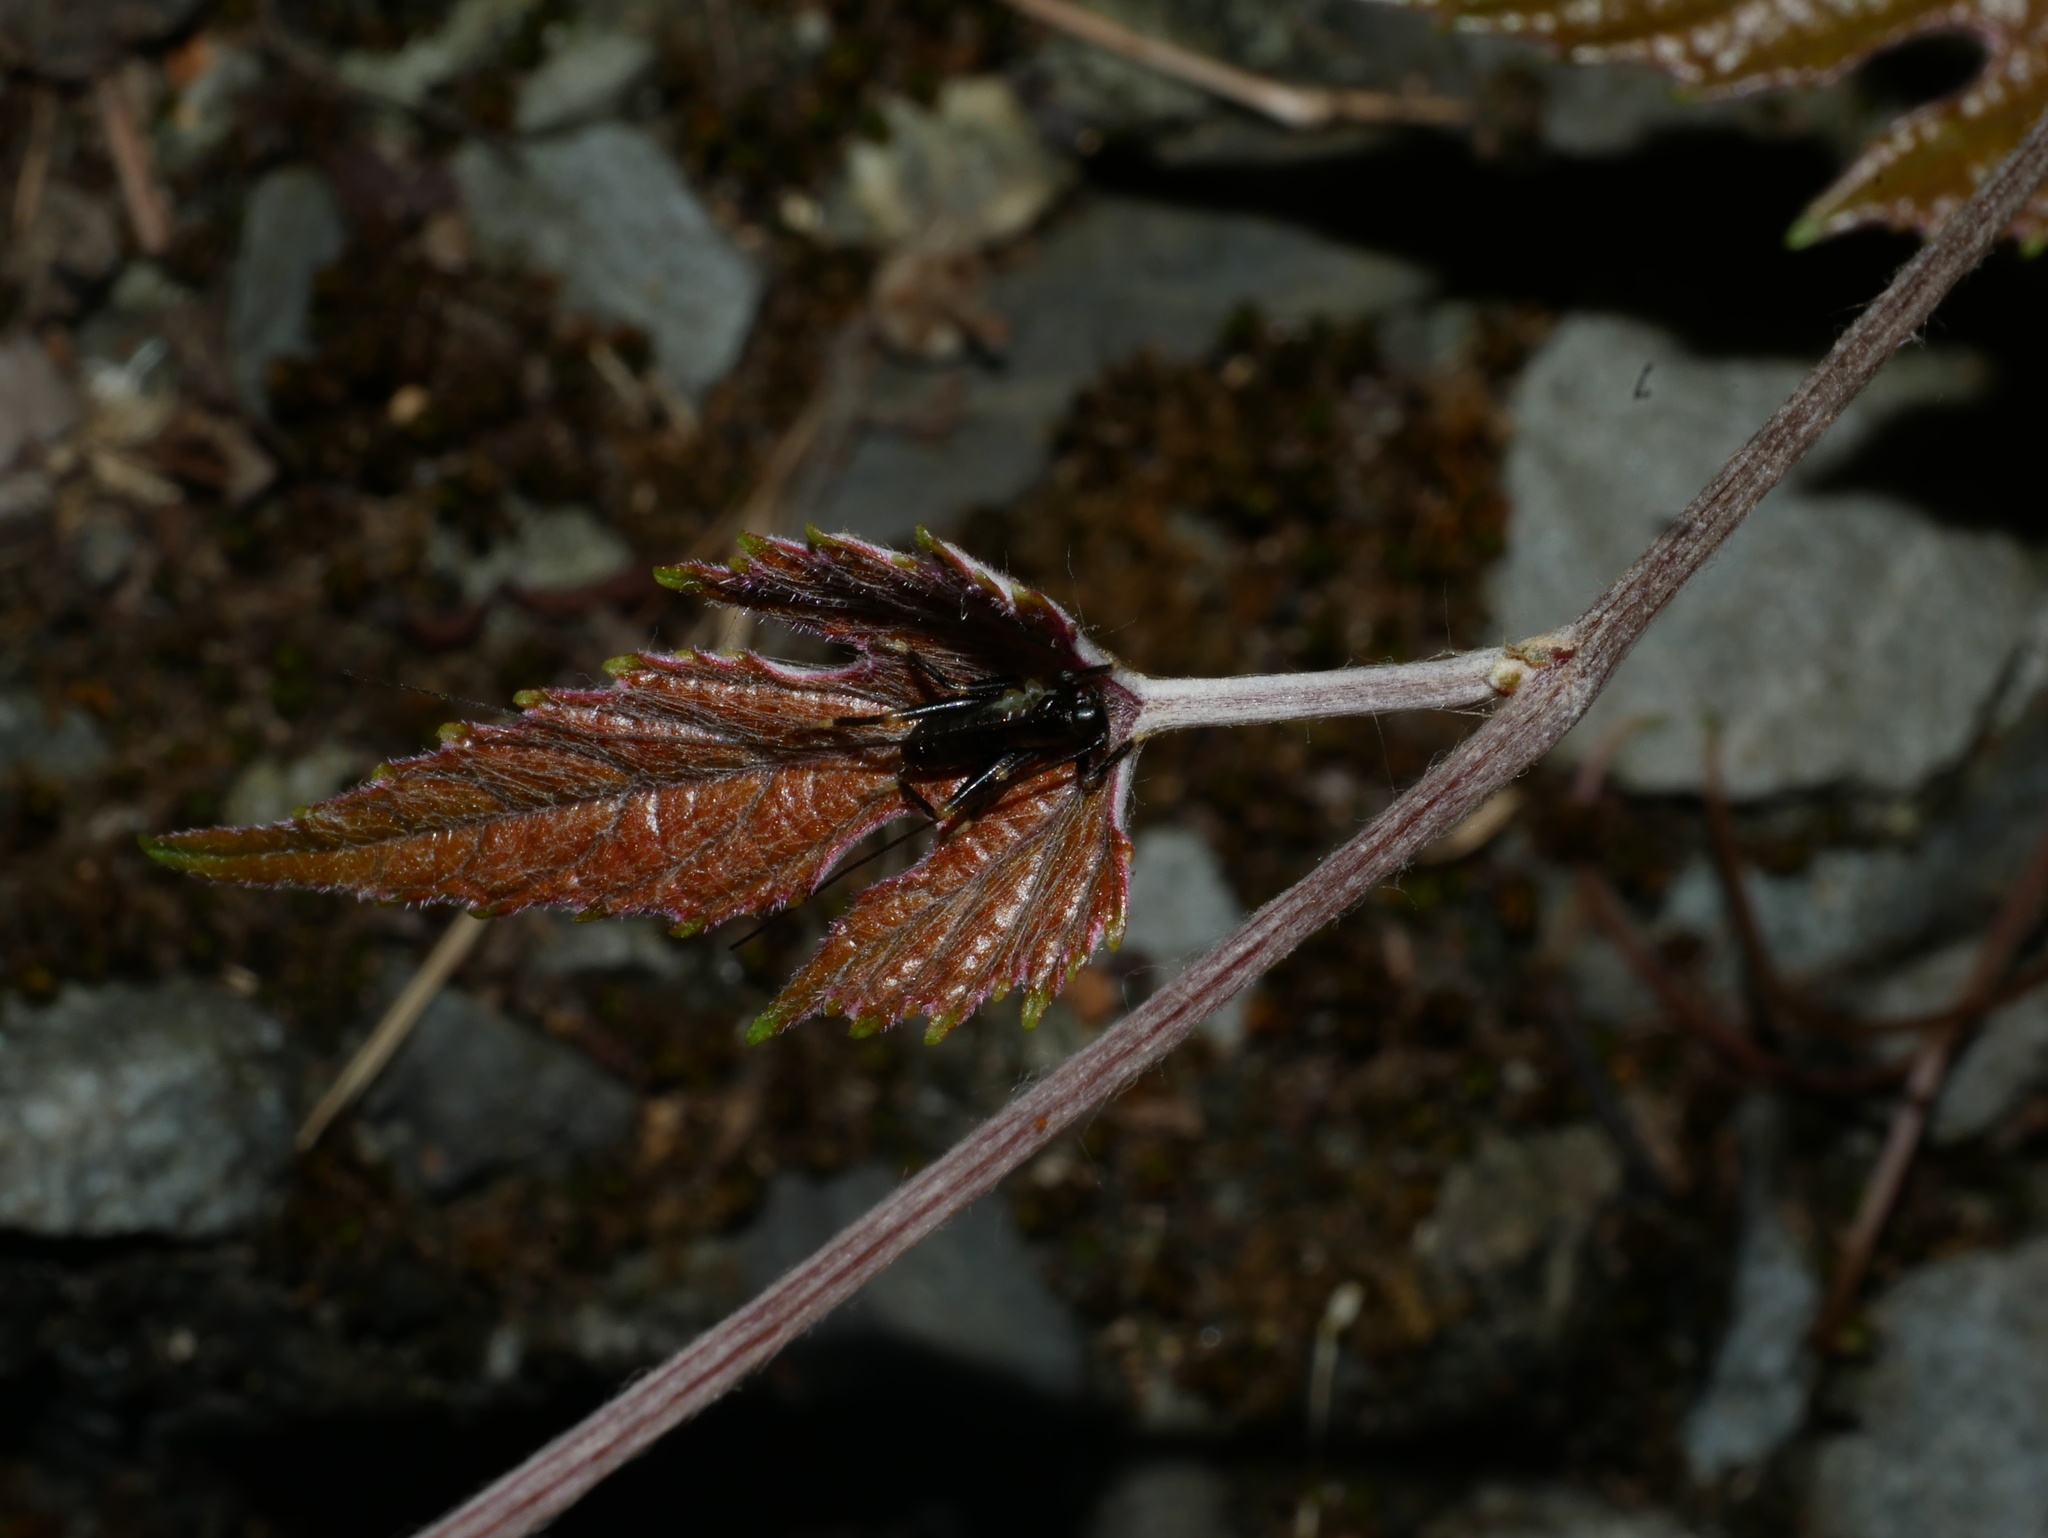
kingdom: Plantae
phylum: Tracheophyta
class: Magnoliopsida
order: Vitales
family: Vitaceae
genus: Vitis
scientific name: Vitis ficifolia
